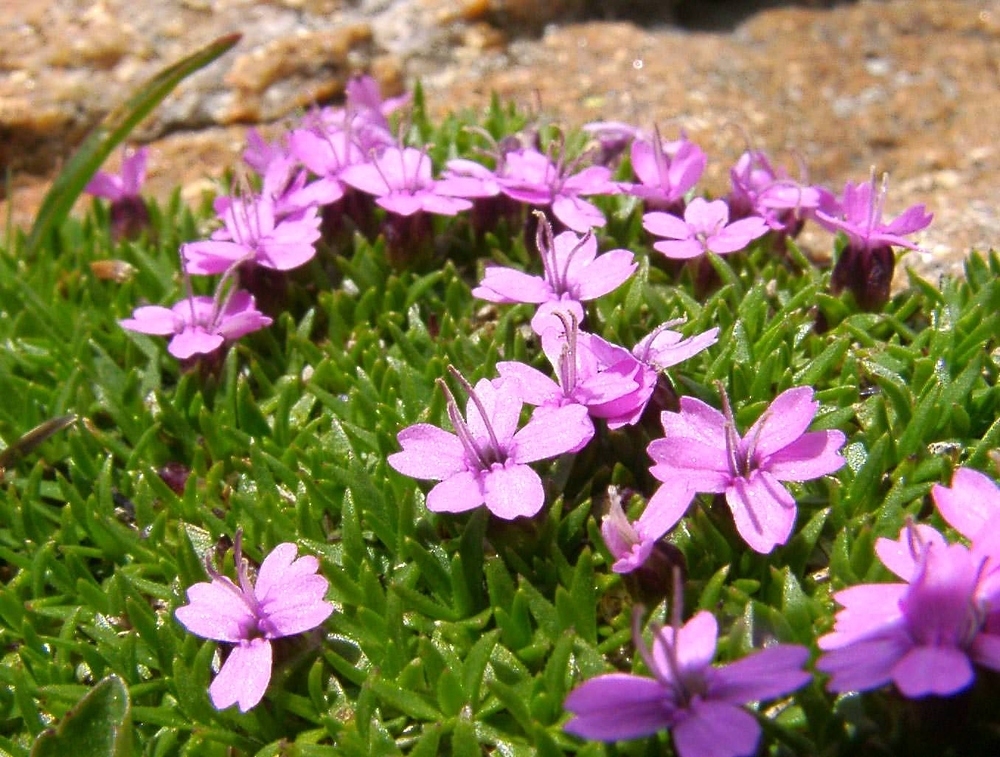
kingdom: Plantae
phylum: Tracheophyta
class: Magnoliopsida
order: Caryophyllales
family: Caryophyllaceae
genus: Silene
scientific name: Silene acaulis
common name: Moss campion
